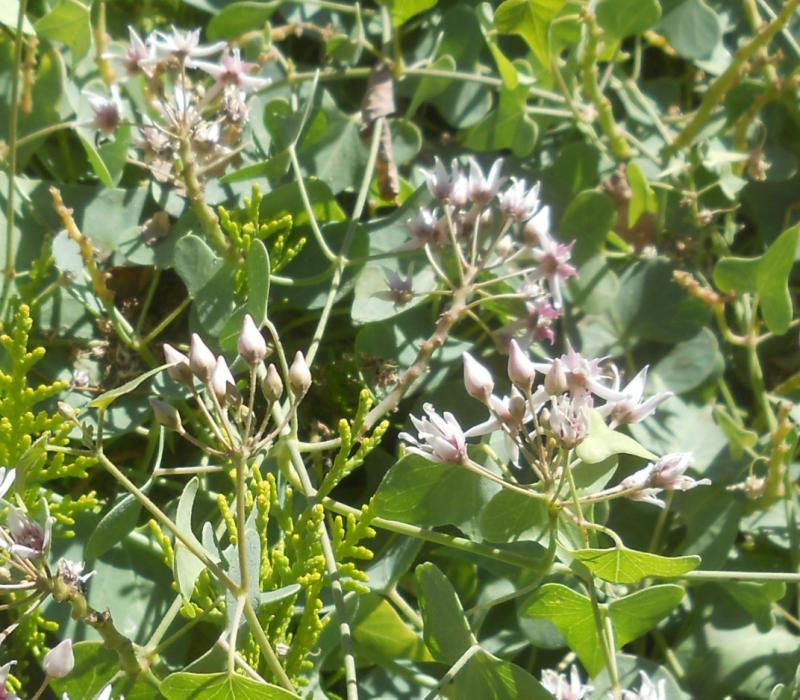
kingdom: Plantae
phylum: Tracheophyta
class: Magnoliopsida
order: Gentianales
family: Apocynaceae
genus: Cynanchum
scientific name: Cynanchum acutum
